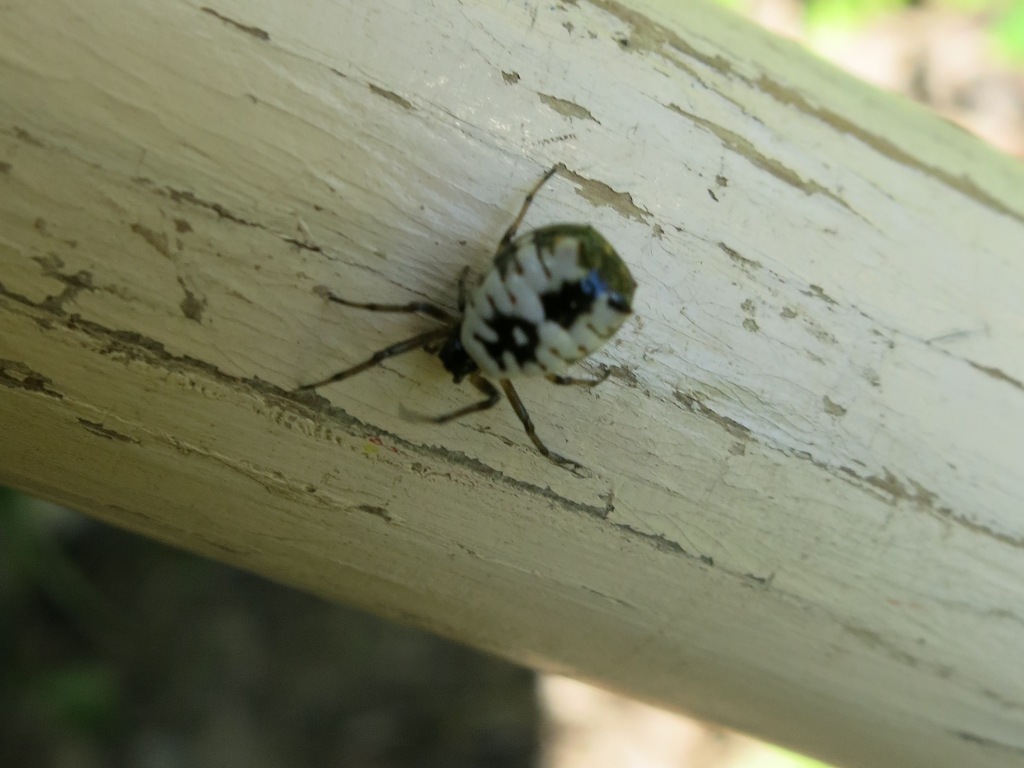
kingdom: Animalia
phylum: Arthropoda
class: Arachnida
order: Araneae
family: Araneidae
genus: Micrathena
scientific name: Micrathena mitrata
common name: Orb weavers
